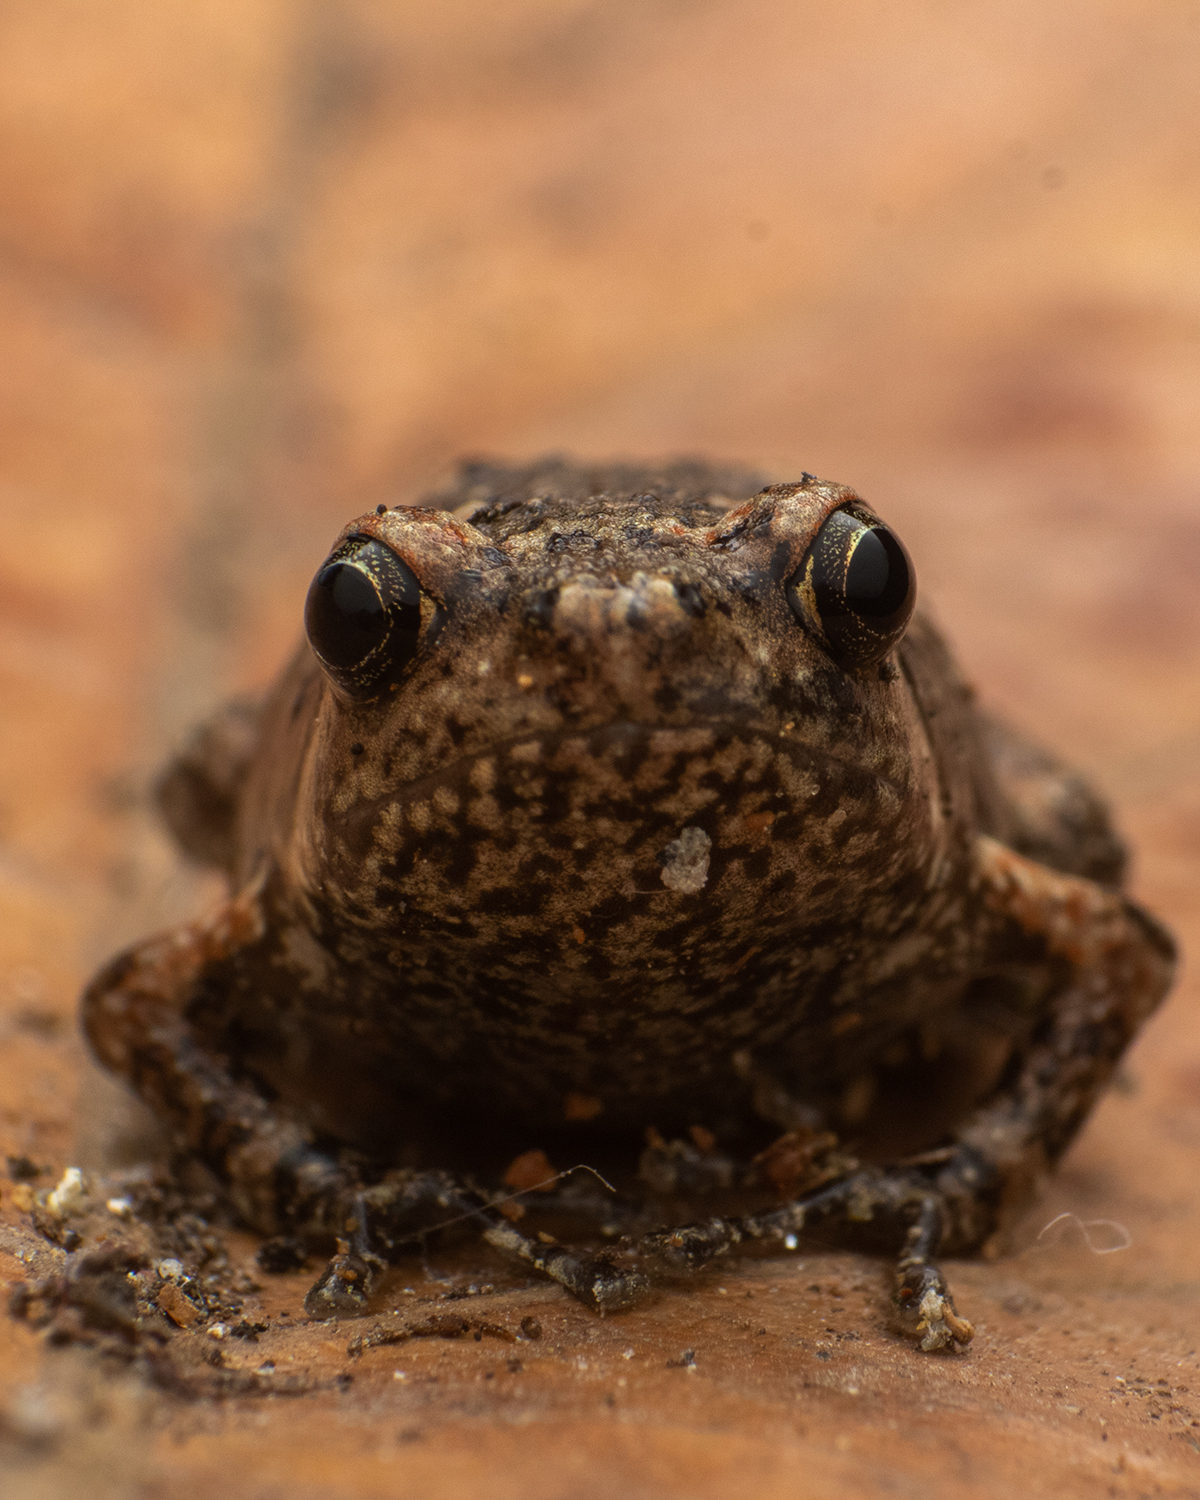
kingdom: Animalia
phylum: Chordata
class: Amphibia
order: Anura
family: Microhylidae
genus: Uperodon
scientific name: Uperodon taprobanicus
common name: Ceylon kaloula
